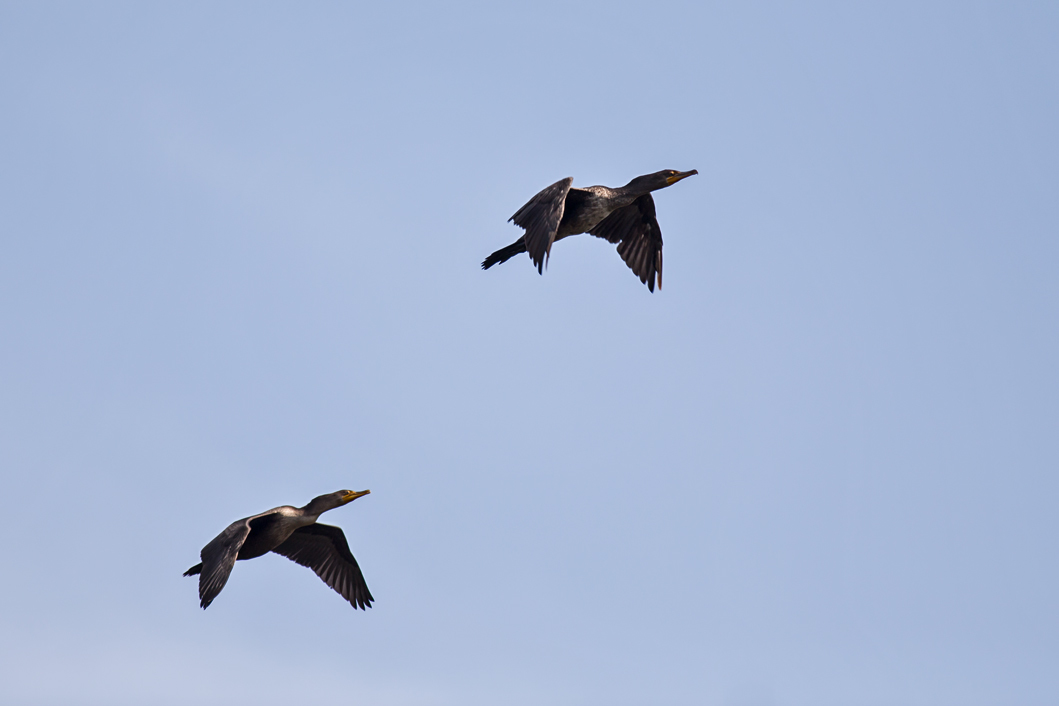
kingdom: Animalia
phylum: Chordata
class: Aves
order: Suliformes
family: Phalacrocoracidae
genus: Phalacrocorax
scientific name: Phalacrocorax auritus
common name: Double-crested cormorant
